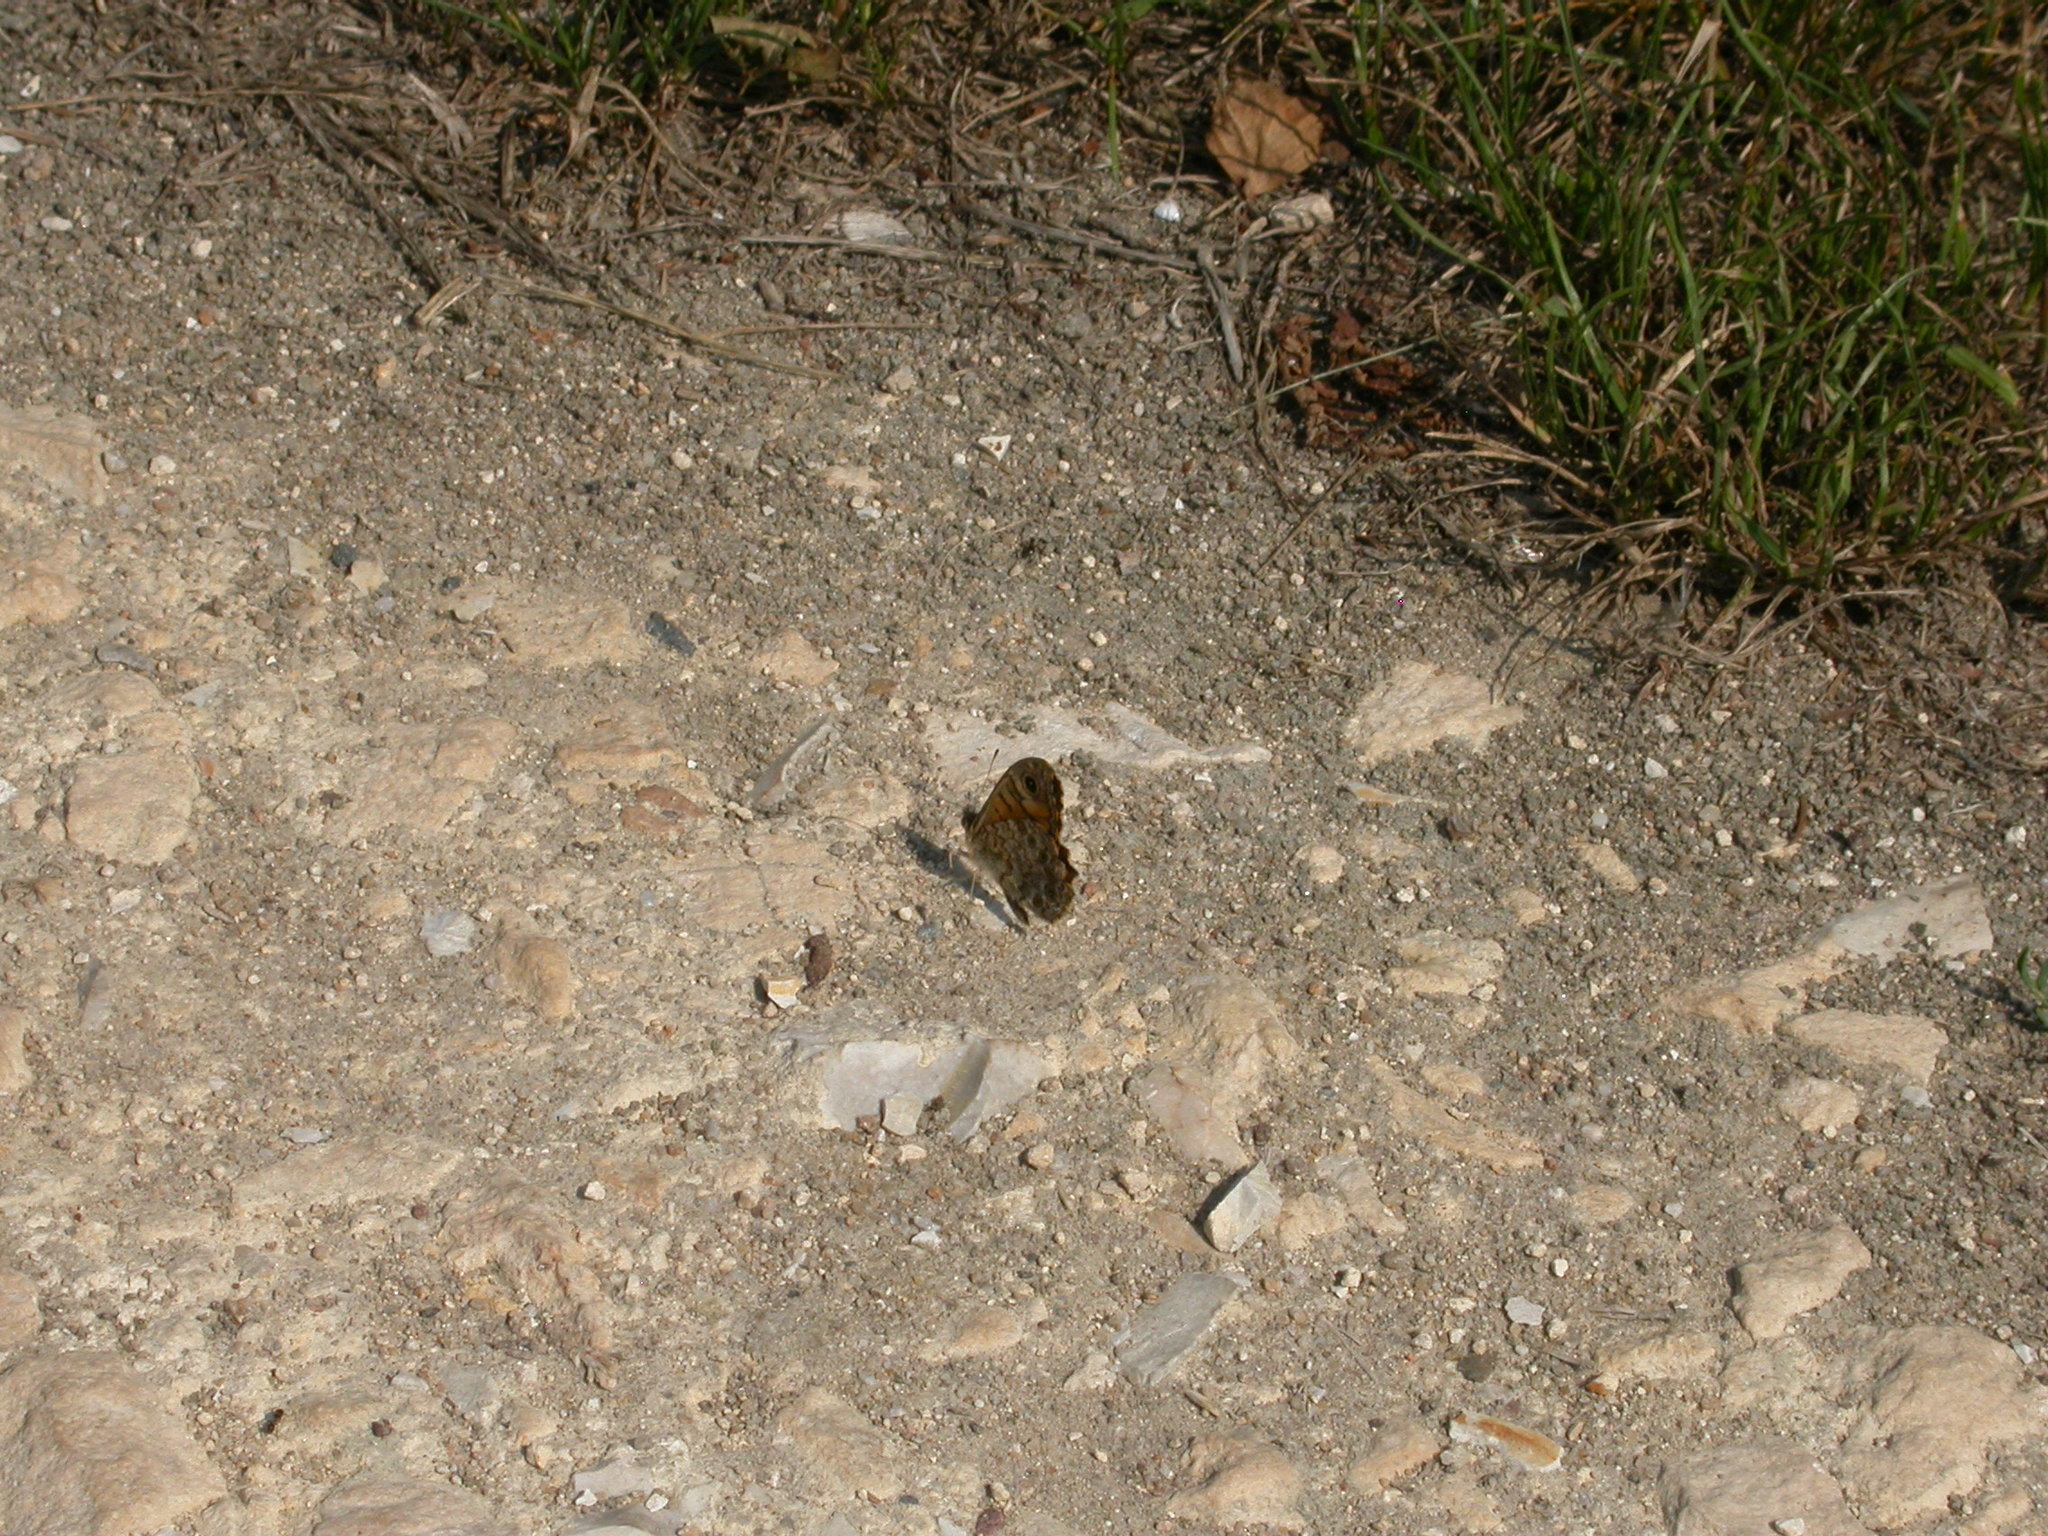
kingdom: Animalia
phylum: Arthropoda
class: Insecta
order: Lepidoptera
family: Nymphalidae
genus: Pararge
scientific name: Pararge Lasiommata megera
